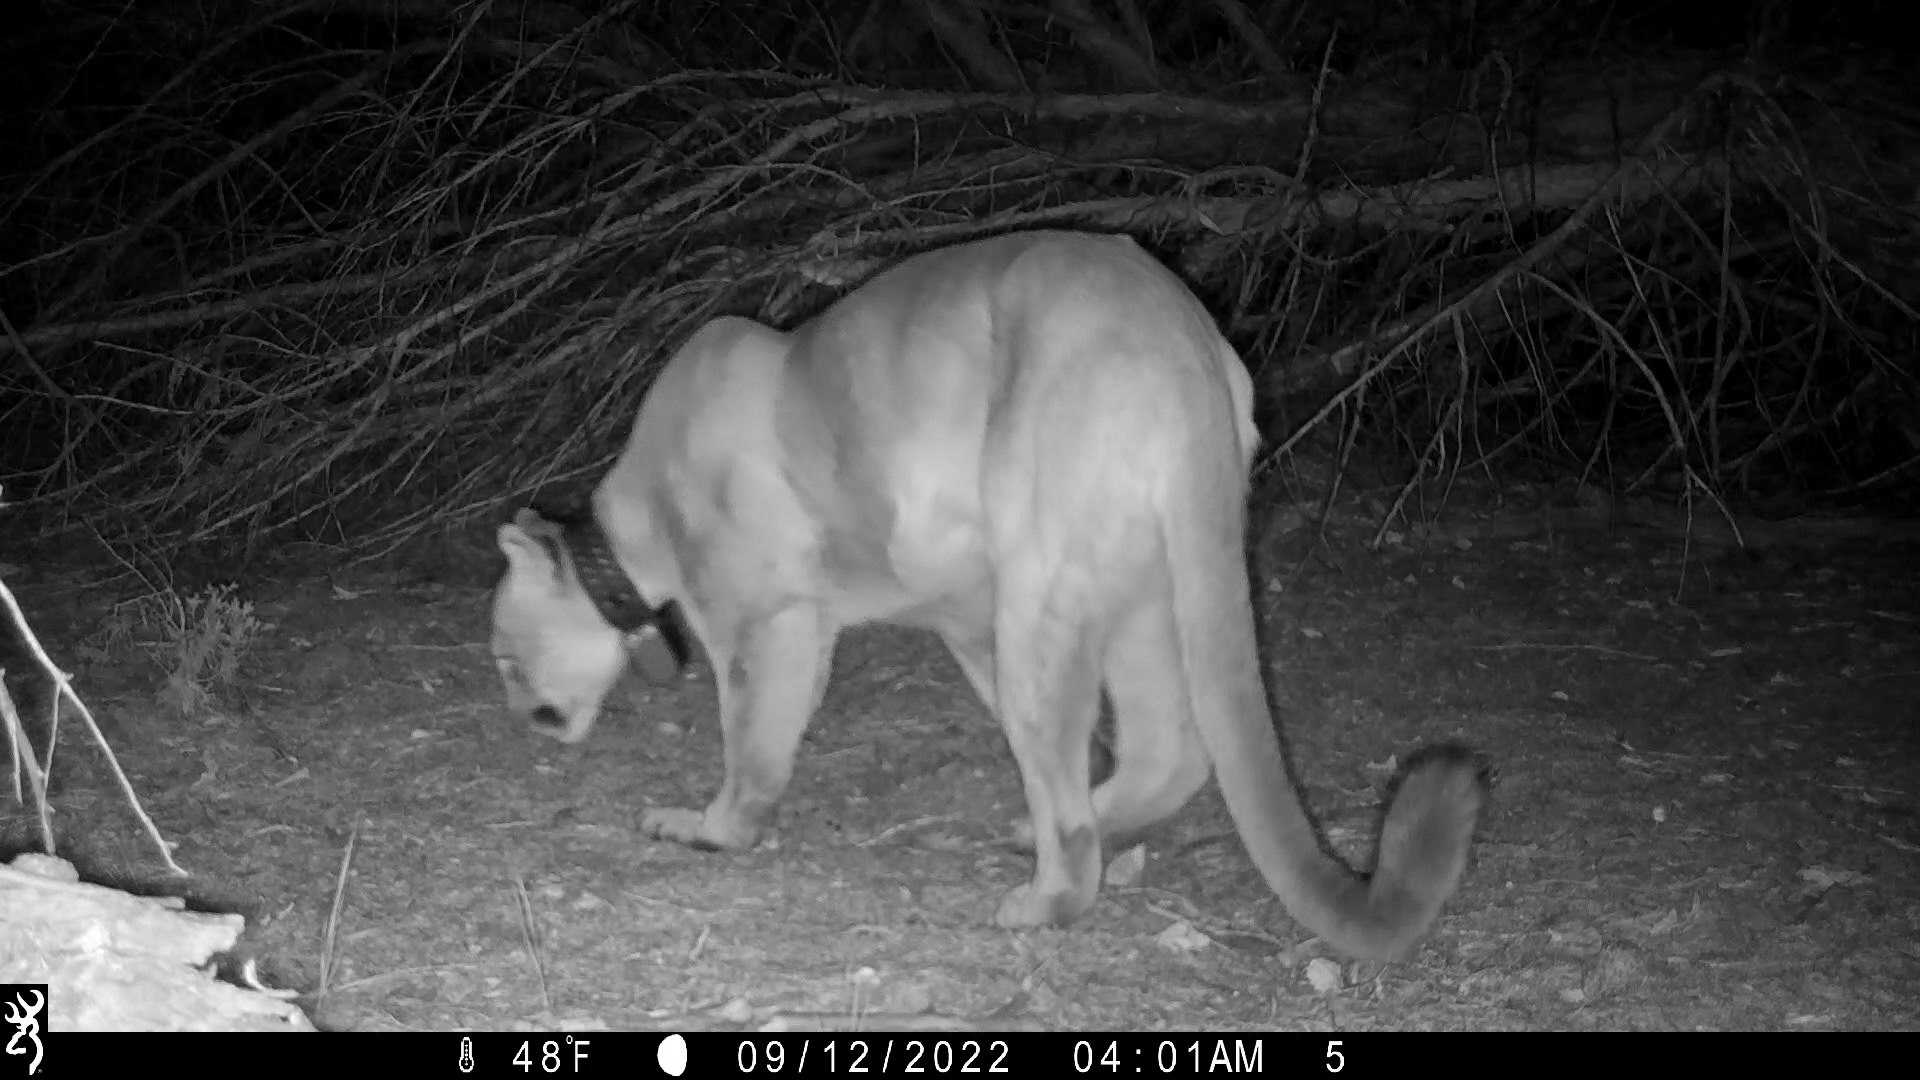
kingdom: Animalia
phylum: Chordata
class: Mammalia
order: Carnivora
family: Felidae
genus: Puma
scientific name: Puma concolor
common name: Puma
